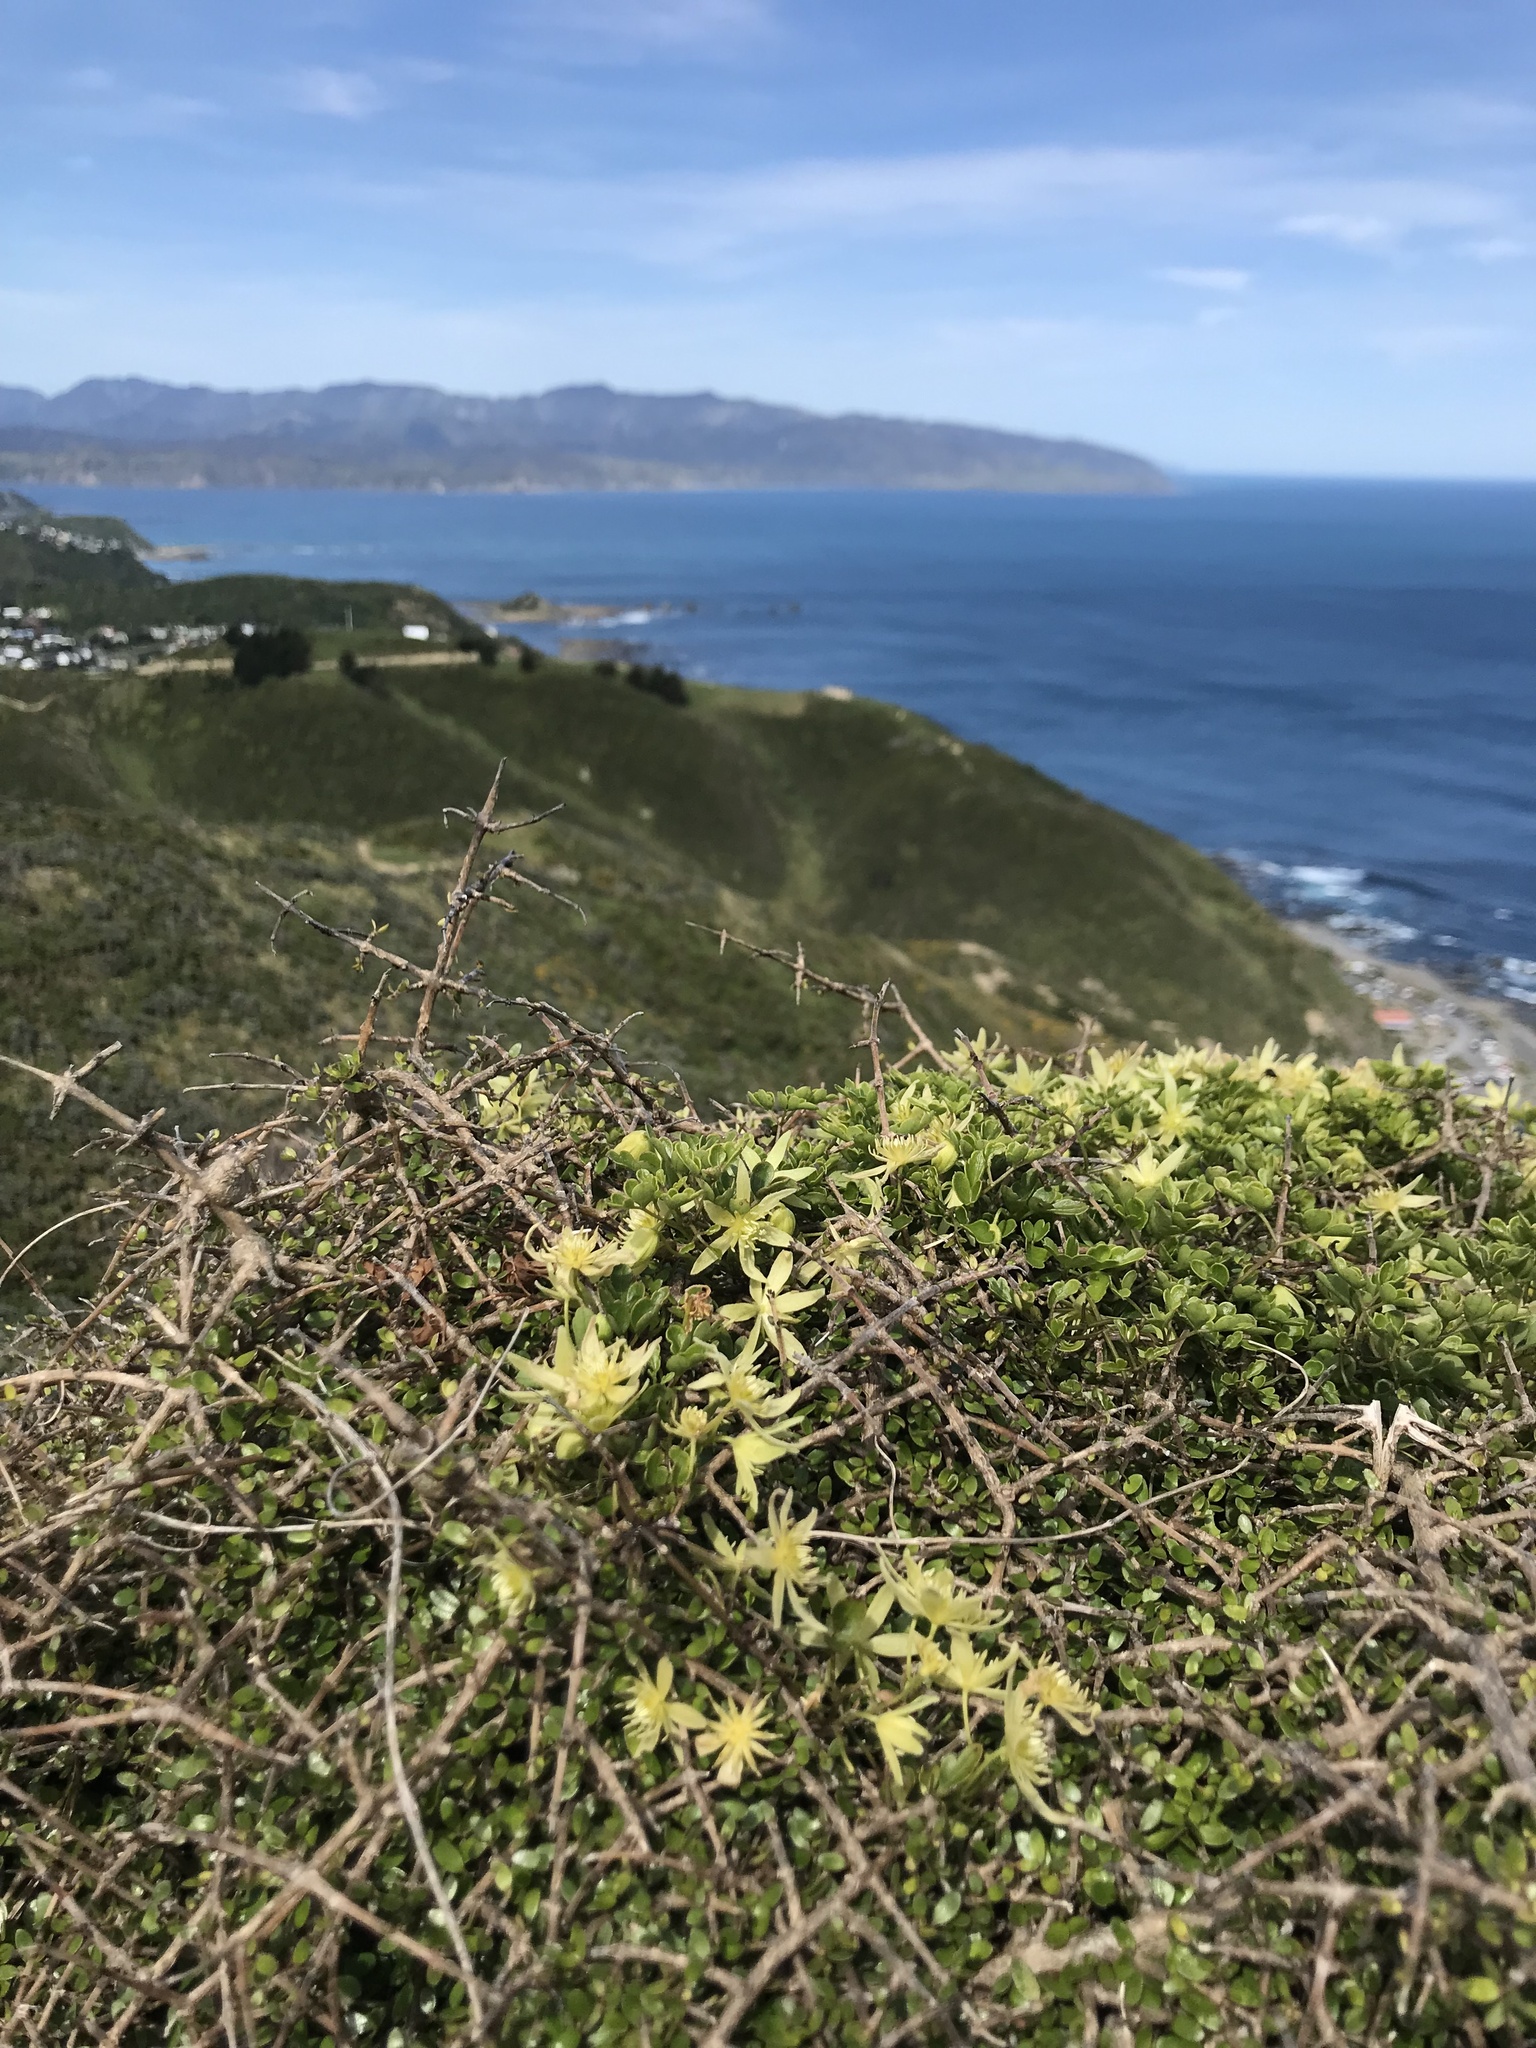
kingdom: Plantae
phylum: Tracheophyta
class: Magnoliopsida
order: Ranunculales
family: Ranunculaceae
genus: Clematis
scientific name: Clematis forsteri
